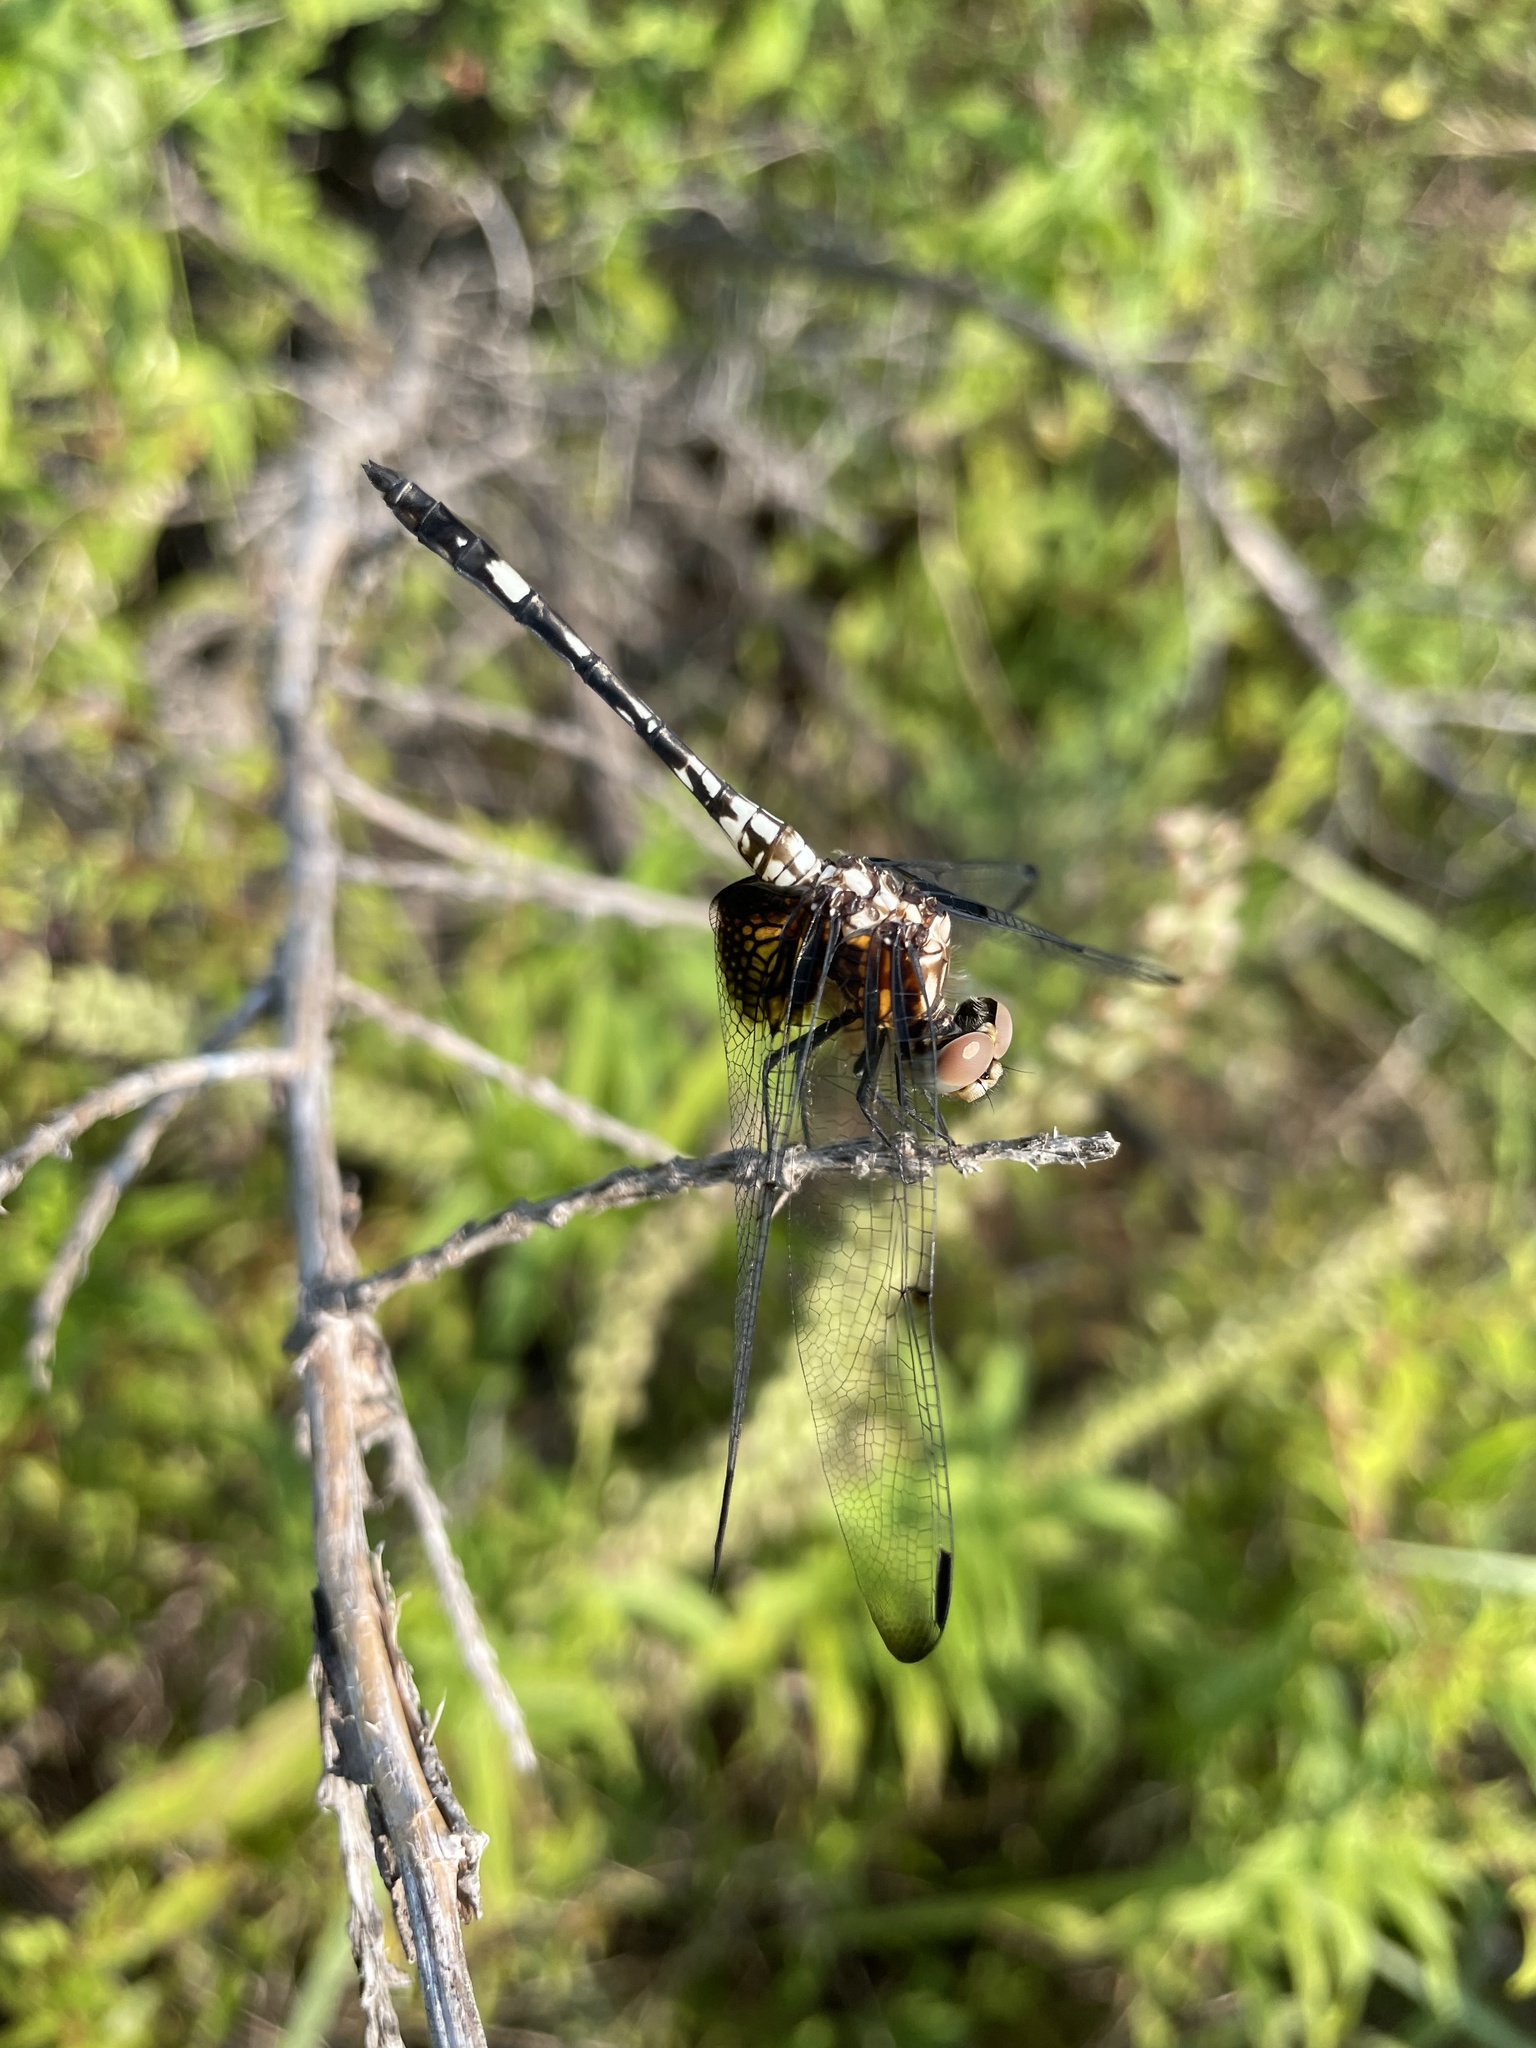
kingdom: Animalia
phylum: Arthropoda
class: Insecta
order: Odonata
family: Libellulidae
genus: Dythemis
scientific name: Dythemis fugax
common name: Checkered setwing
